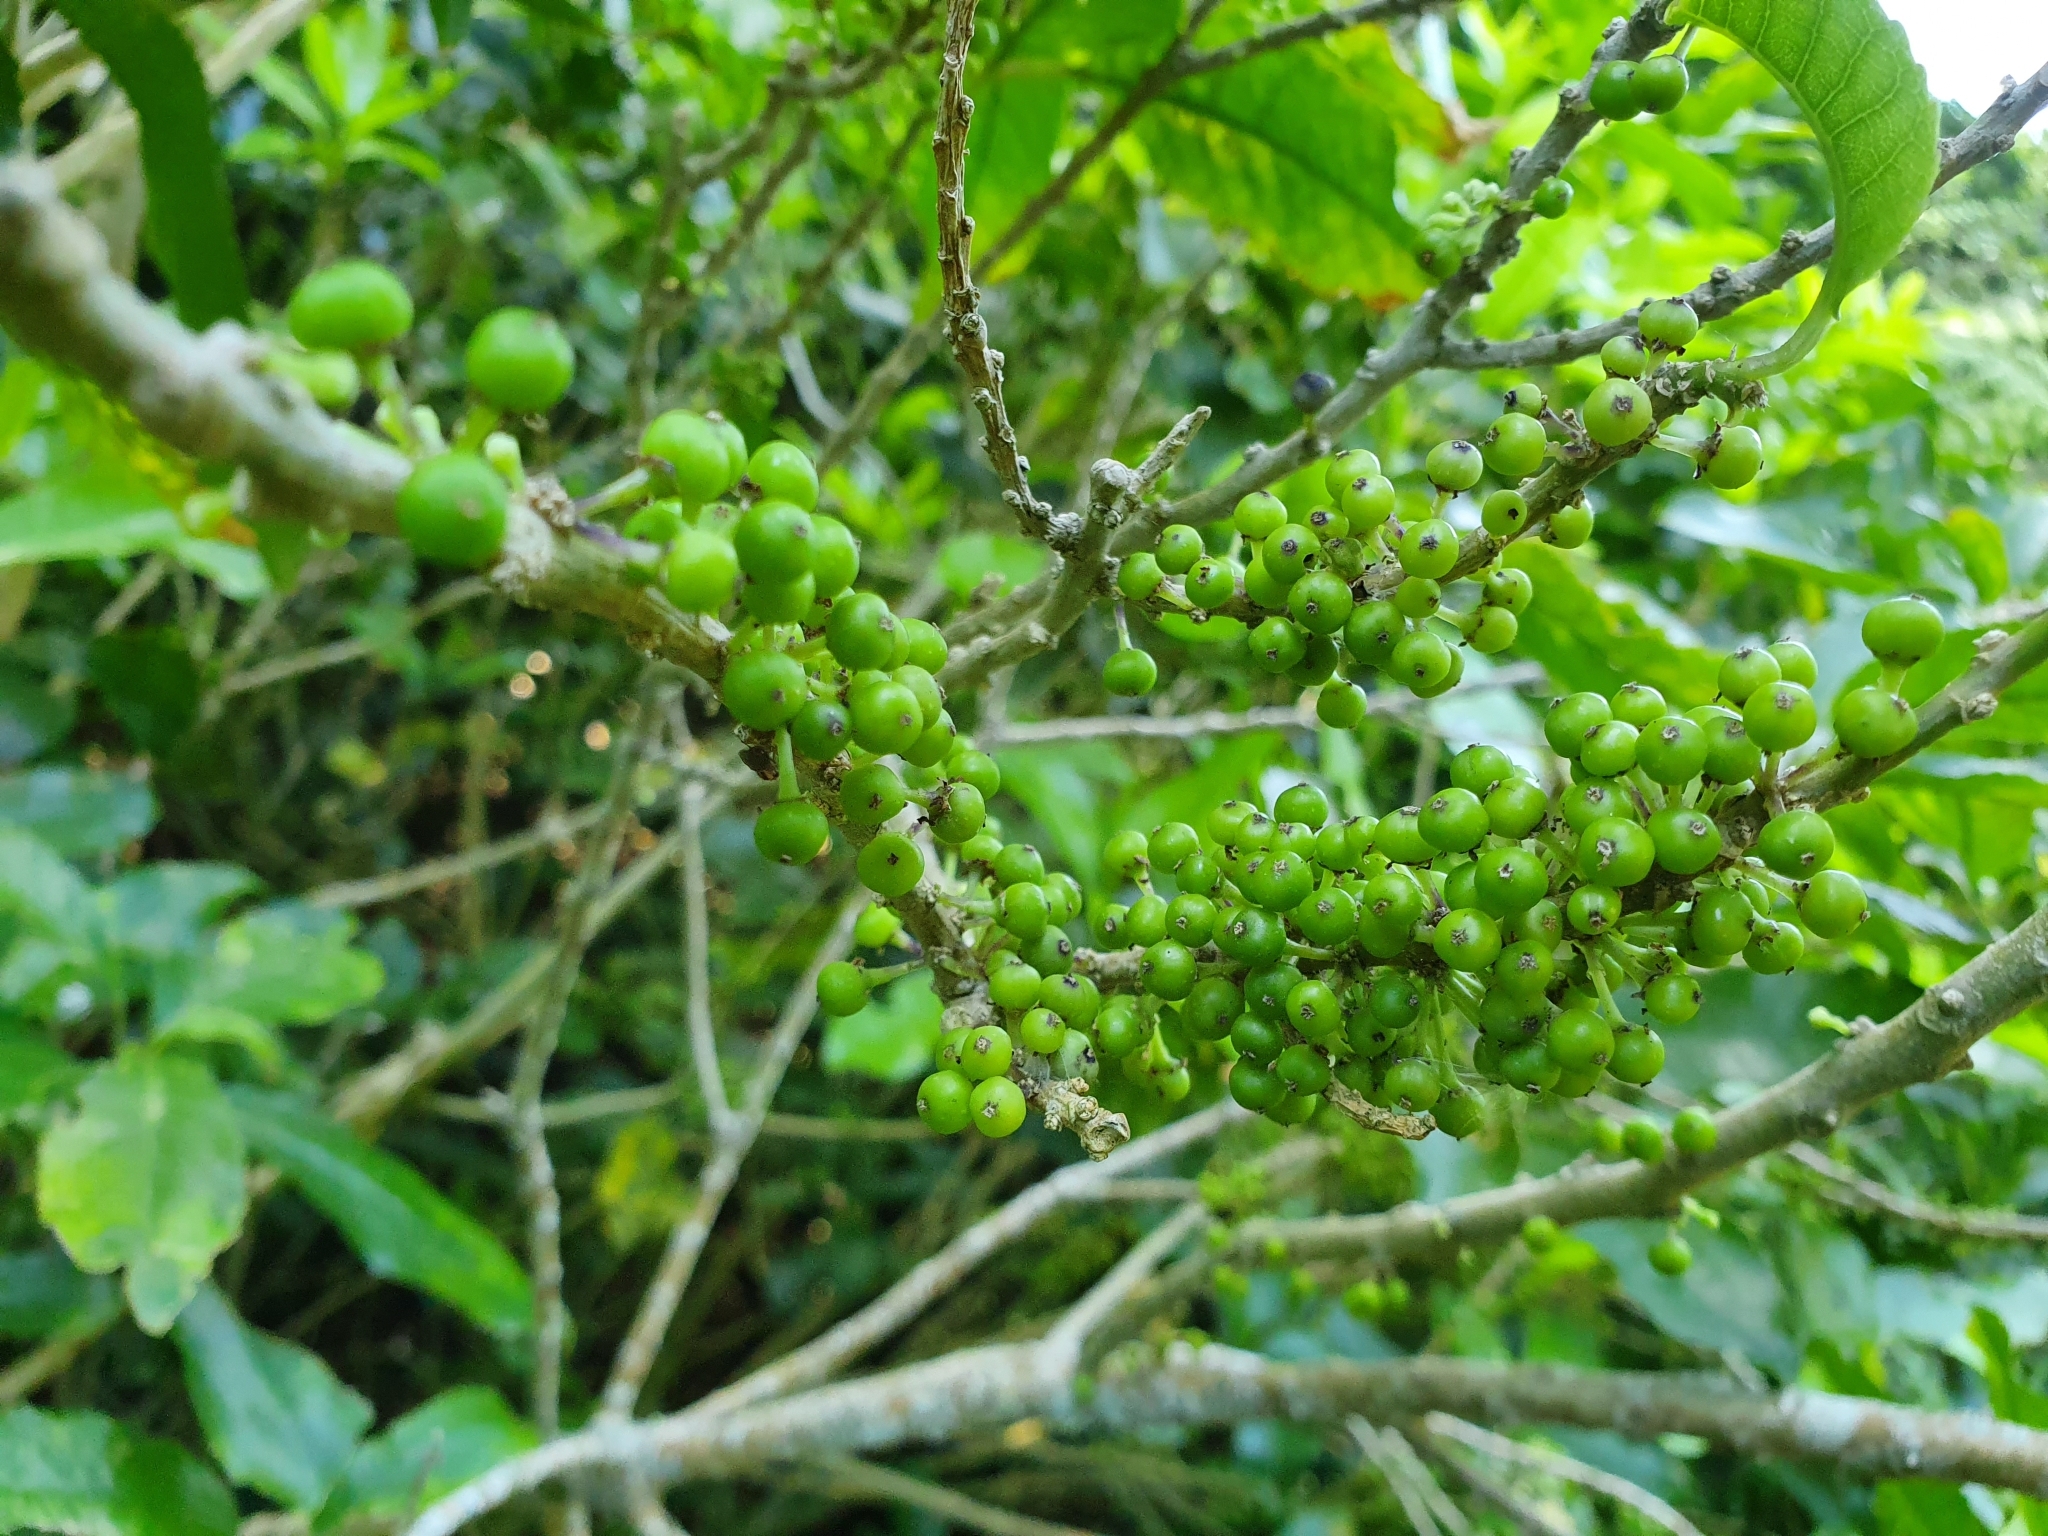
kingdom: Plantae
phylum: Tracheophyta
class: Magnoliopsida
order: Malpighiales
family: Violaceae
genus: Melicytus
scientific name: Melicytus ramiflorus
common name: Mahoe
